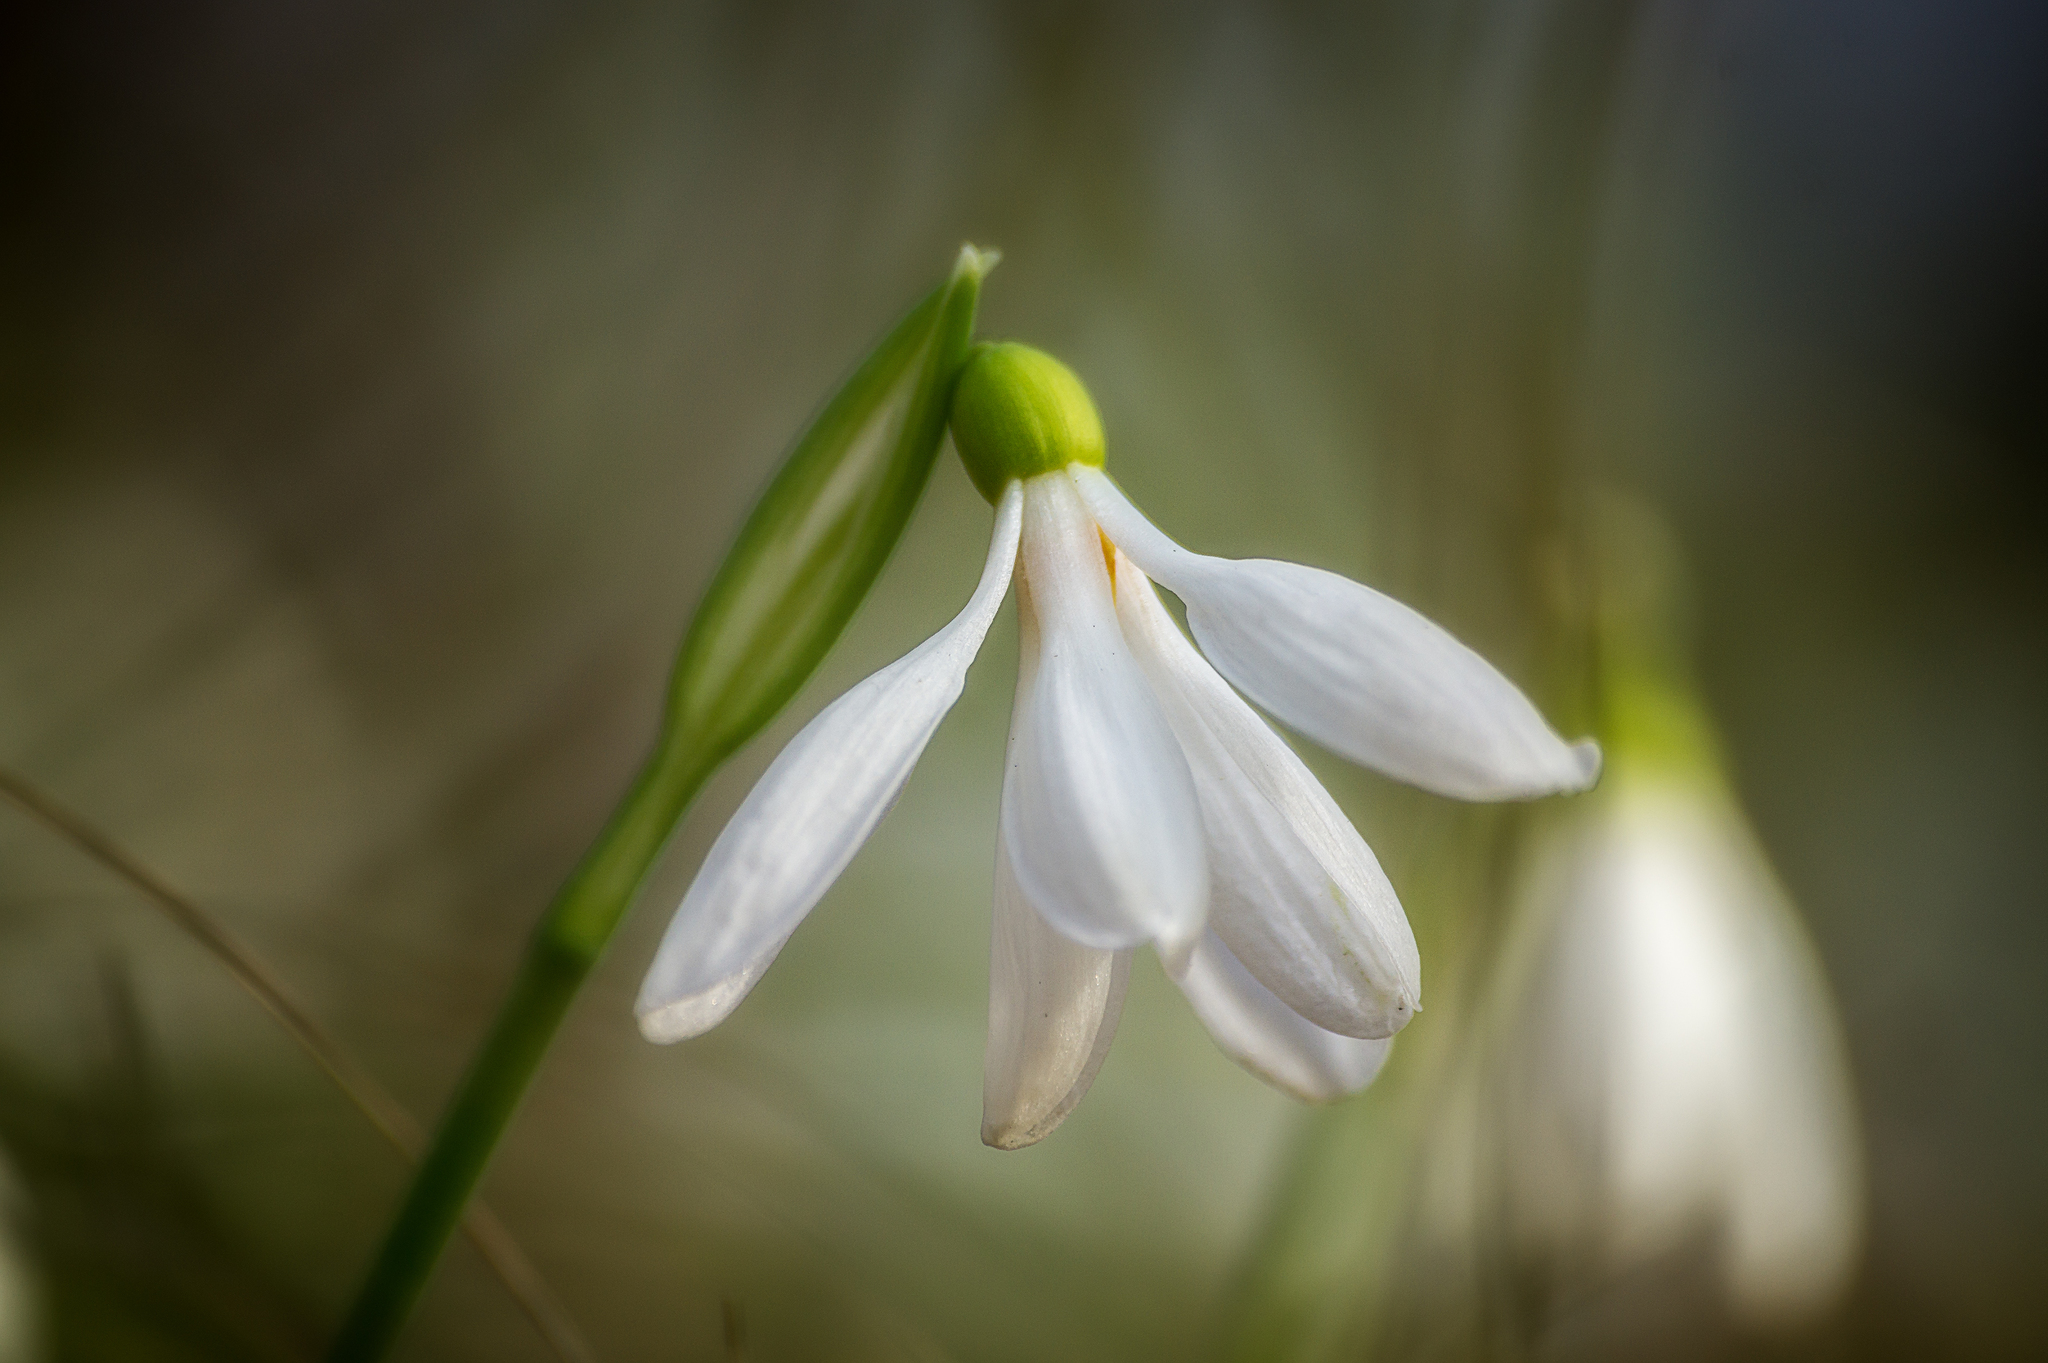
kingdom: Plantae
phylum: Tracheophyta
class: Liliopsida
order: Asparagales
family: Amaryllidaceae
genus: Galanthus
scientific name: Galanthus plicatus
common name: Pleated snowdrop
